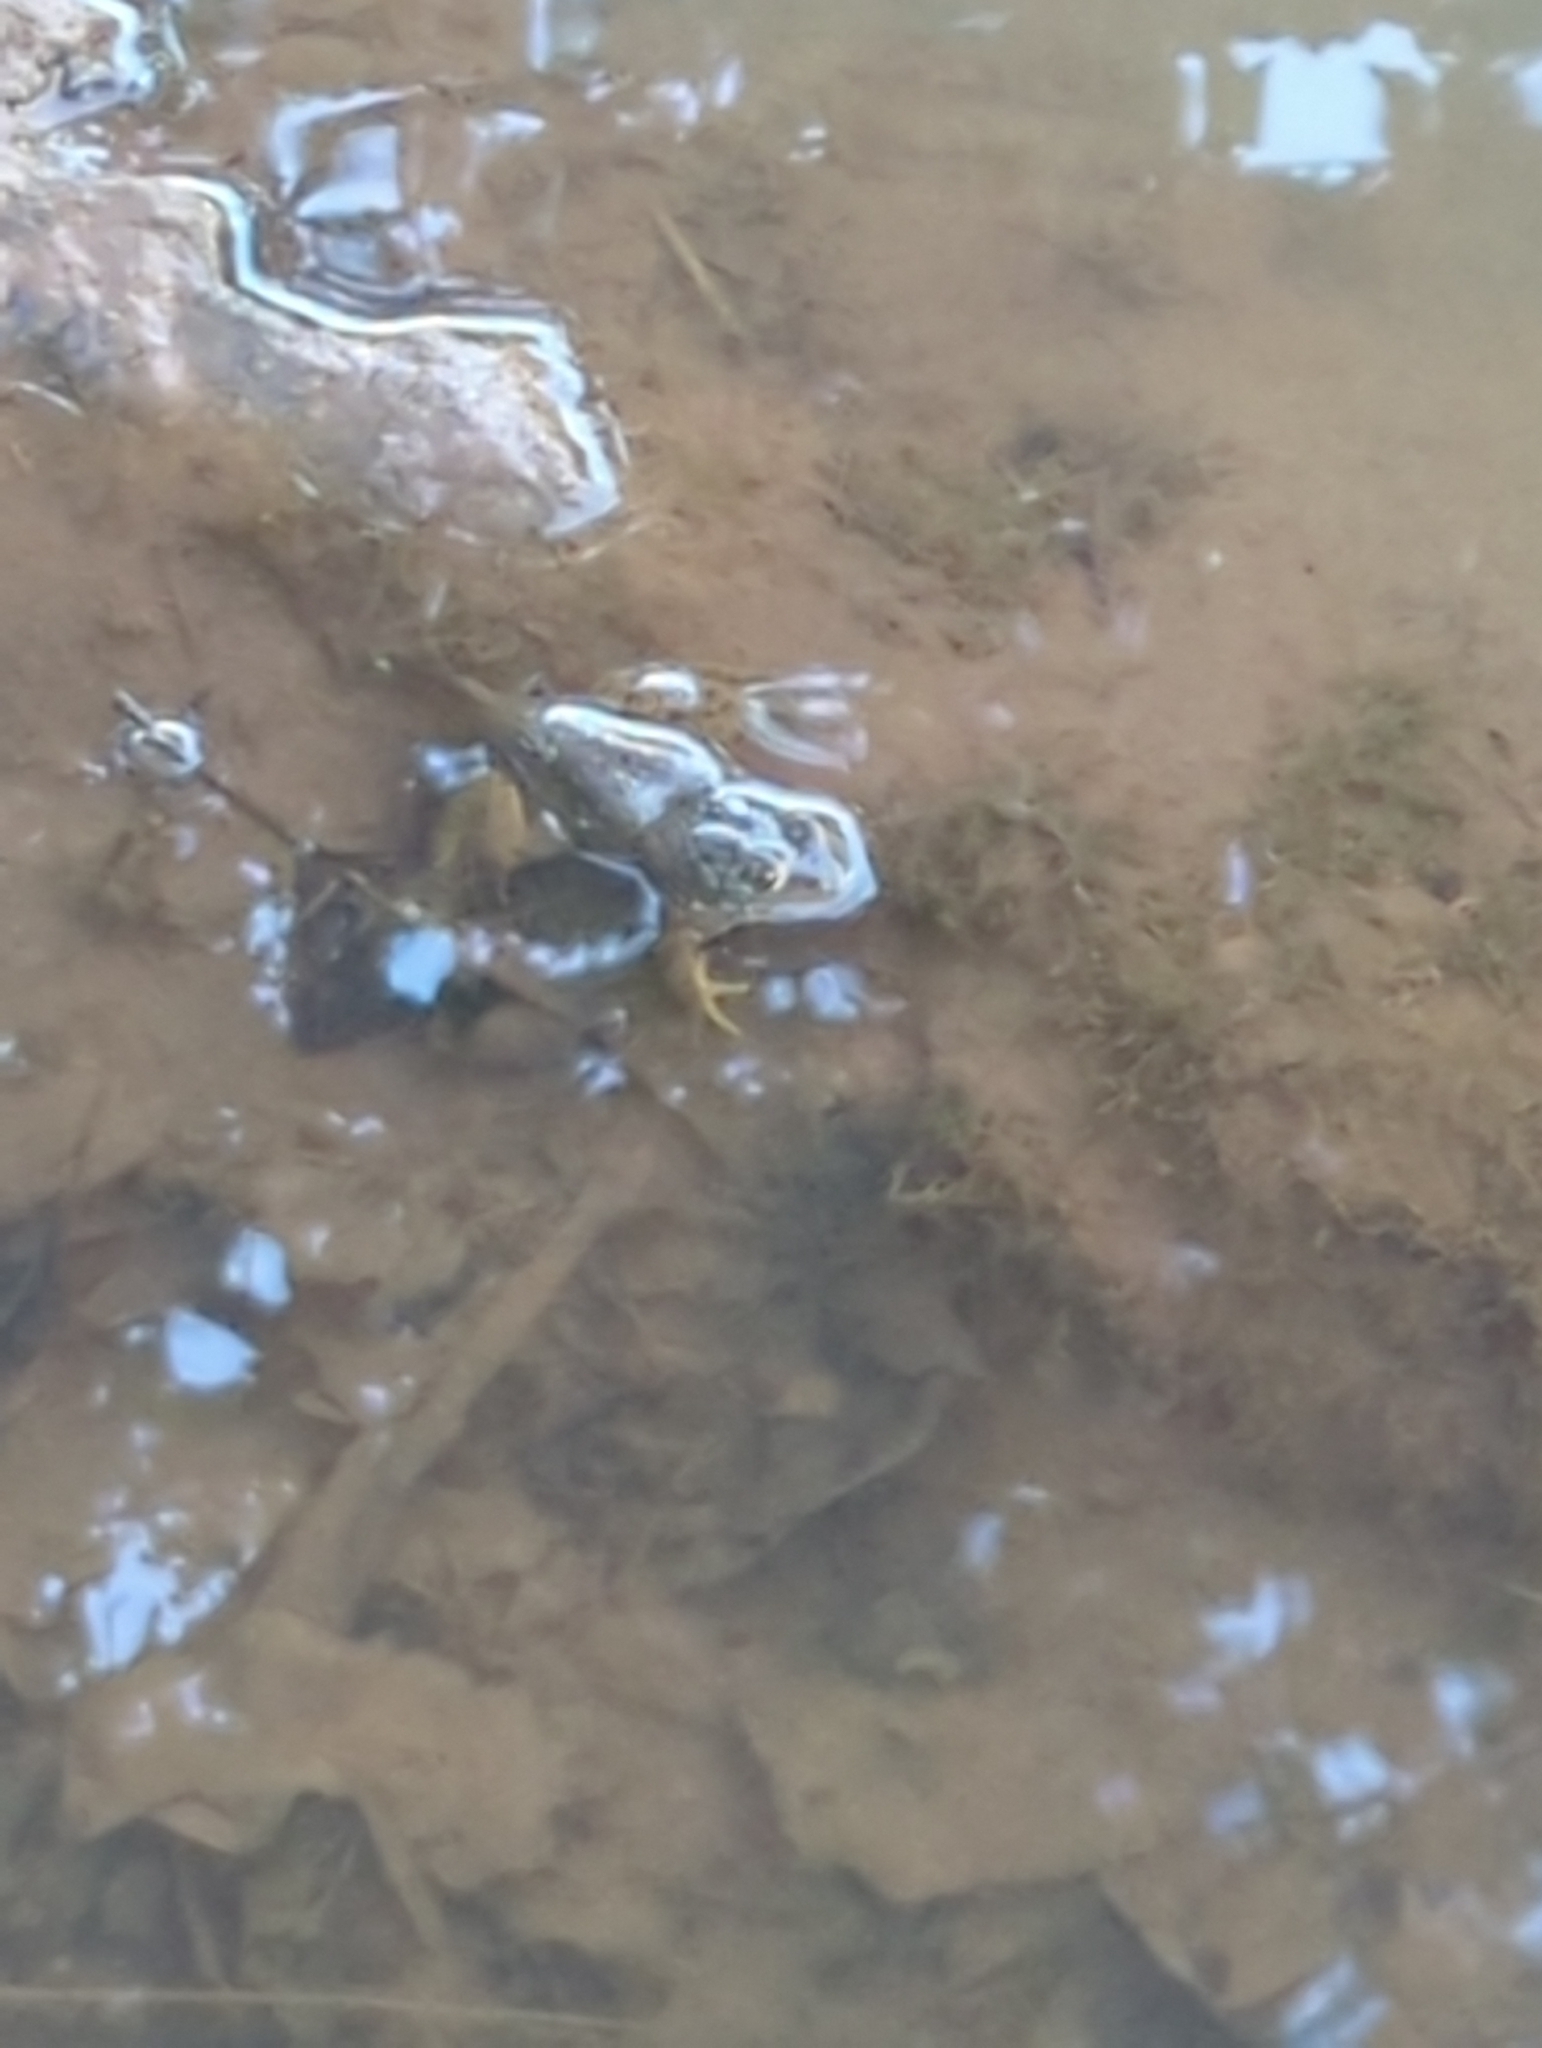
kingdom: Animalia
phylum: Chordata
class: Amphibia
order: Anura
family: Ranidae
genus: Lithobates
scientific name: Lithobates catesbeianus
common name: American bullfrog
